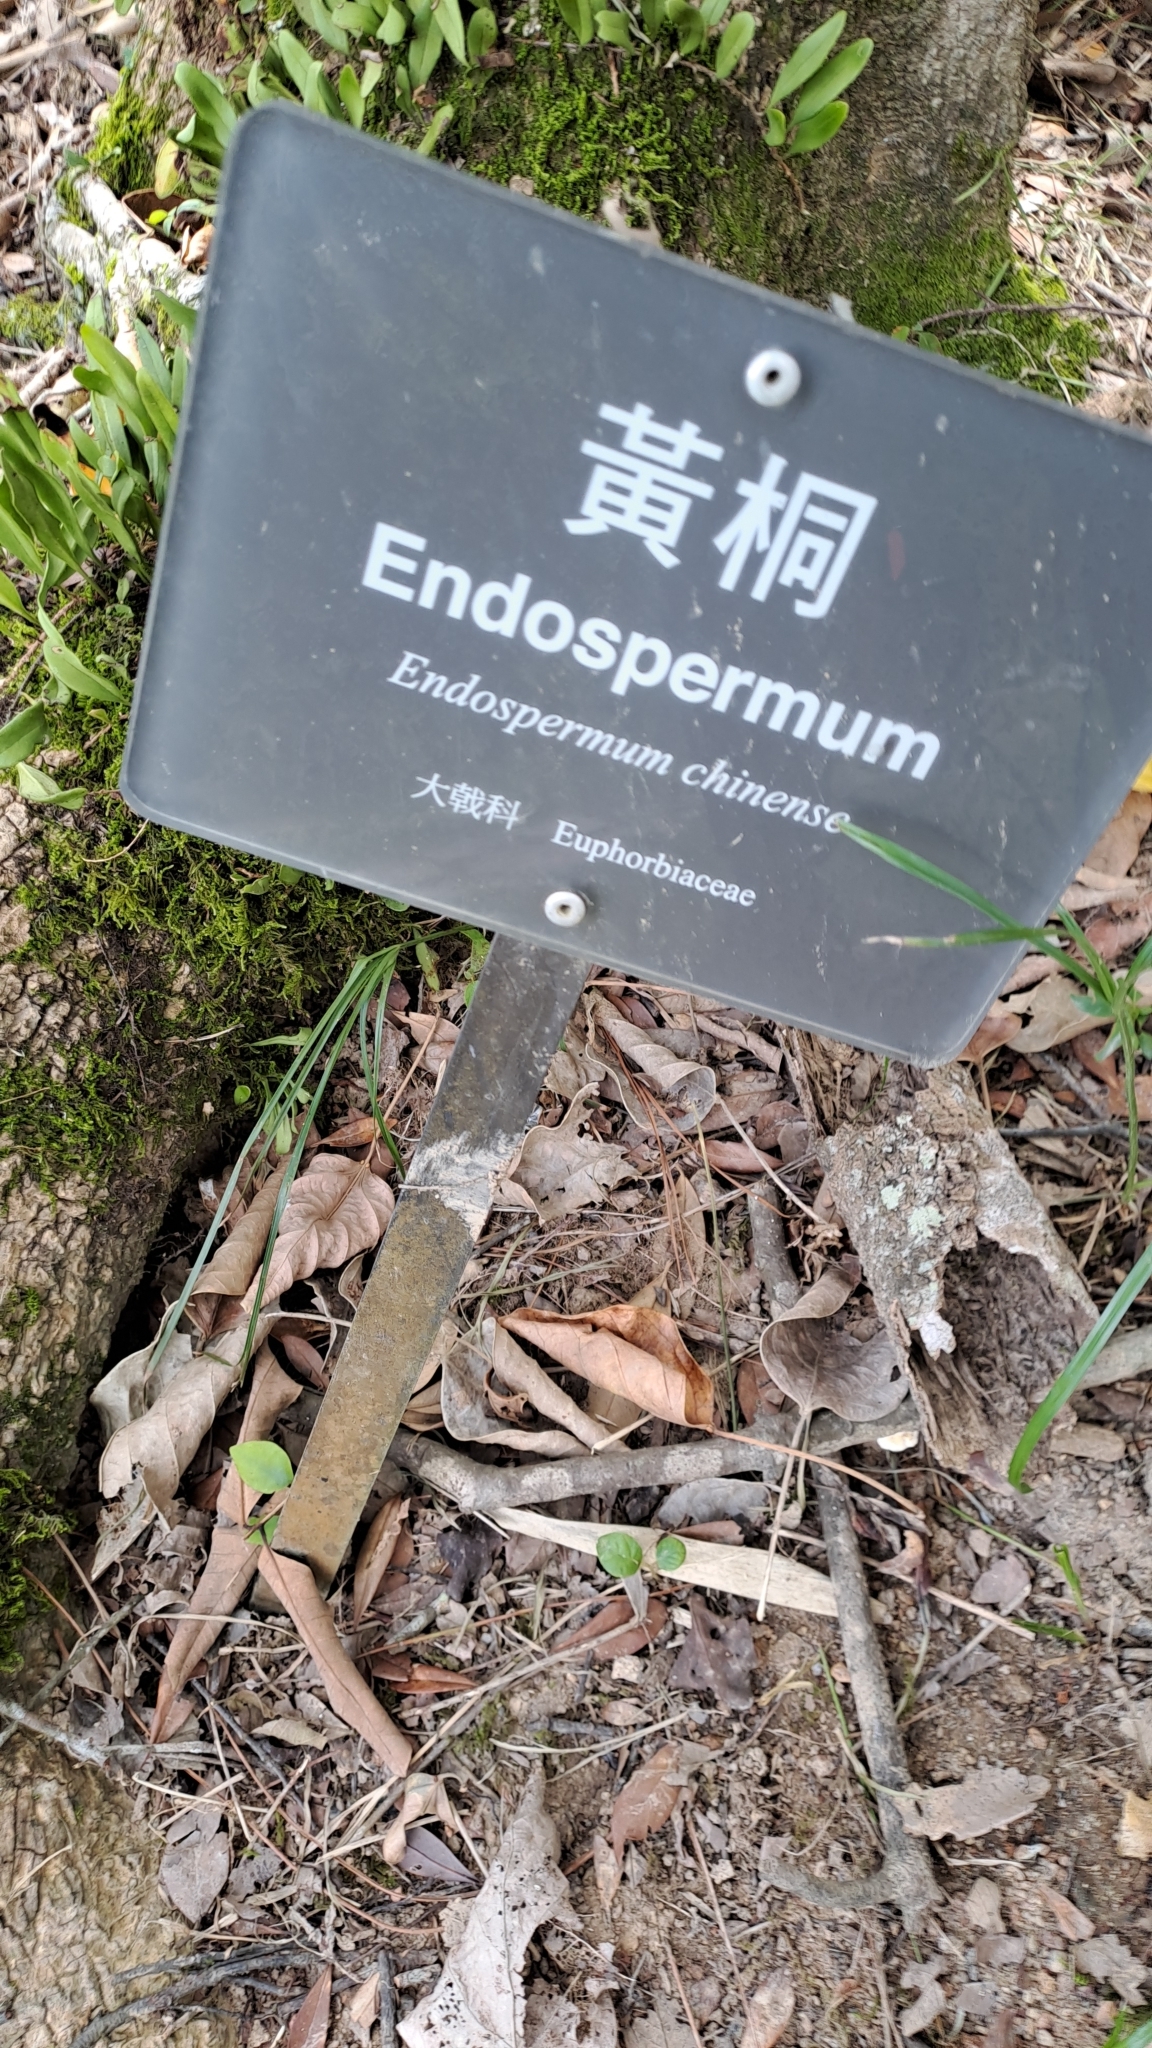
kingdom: Plantae
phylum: Tracheophyta
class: Magnoliopsida
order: Malpighiales
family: Euphorbiaceae
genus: Endospermum
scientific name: Endospermum chinense
